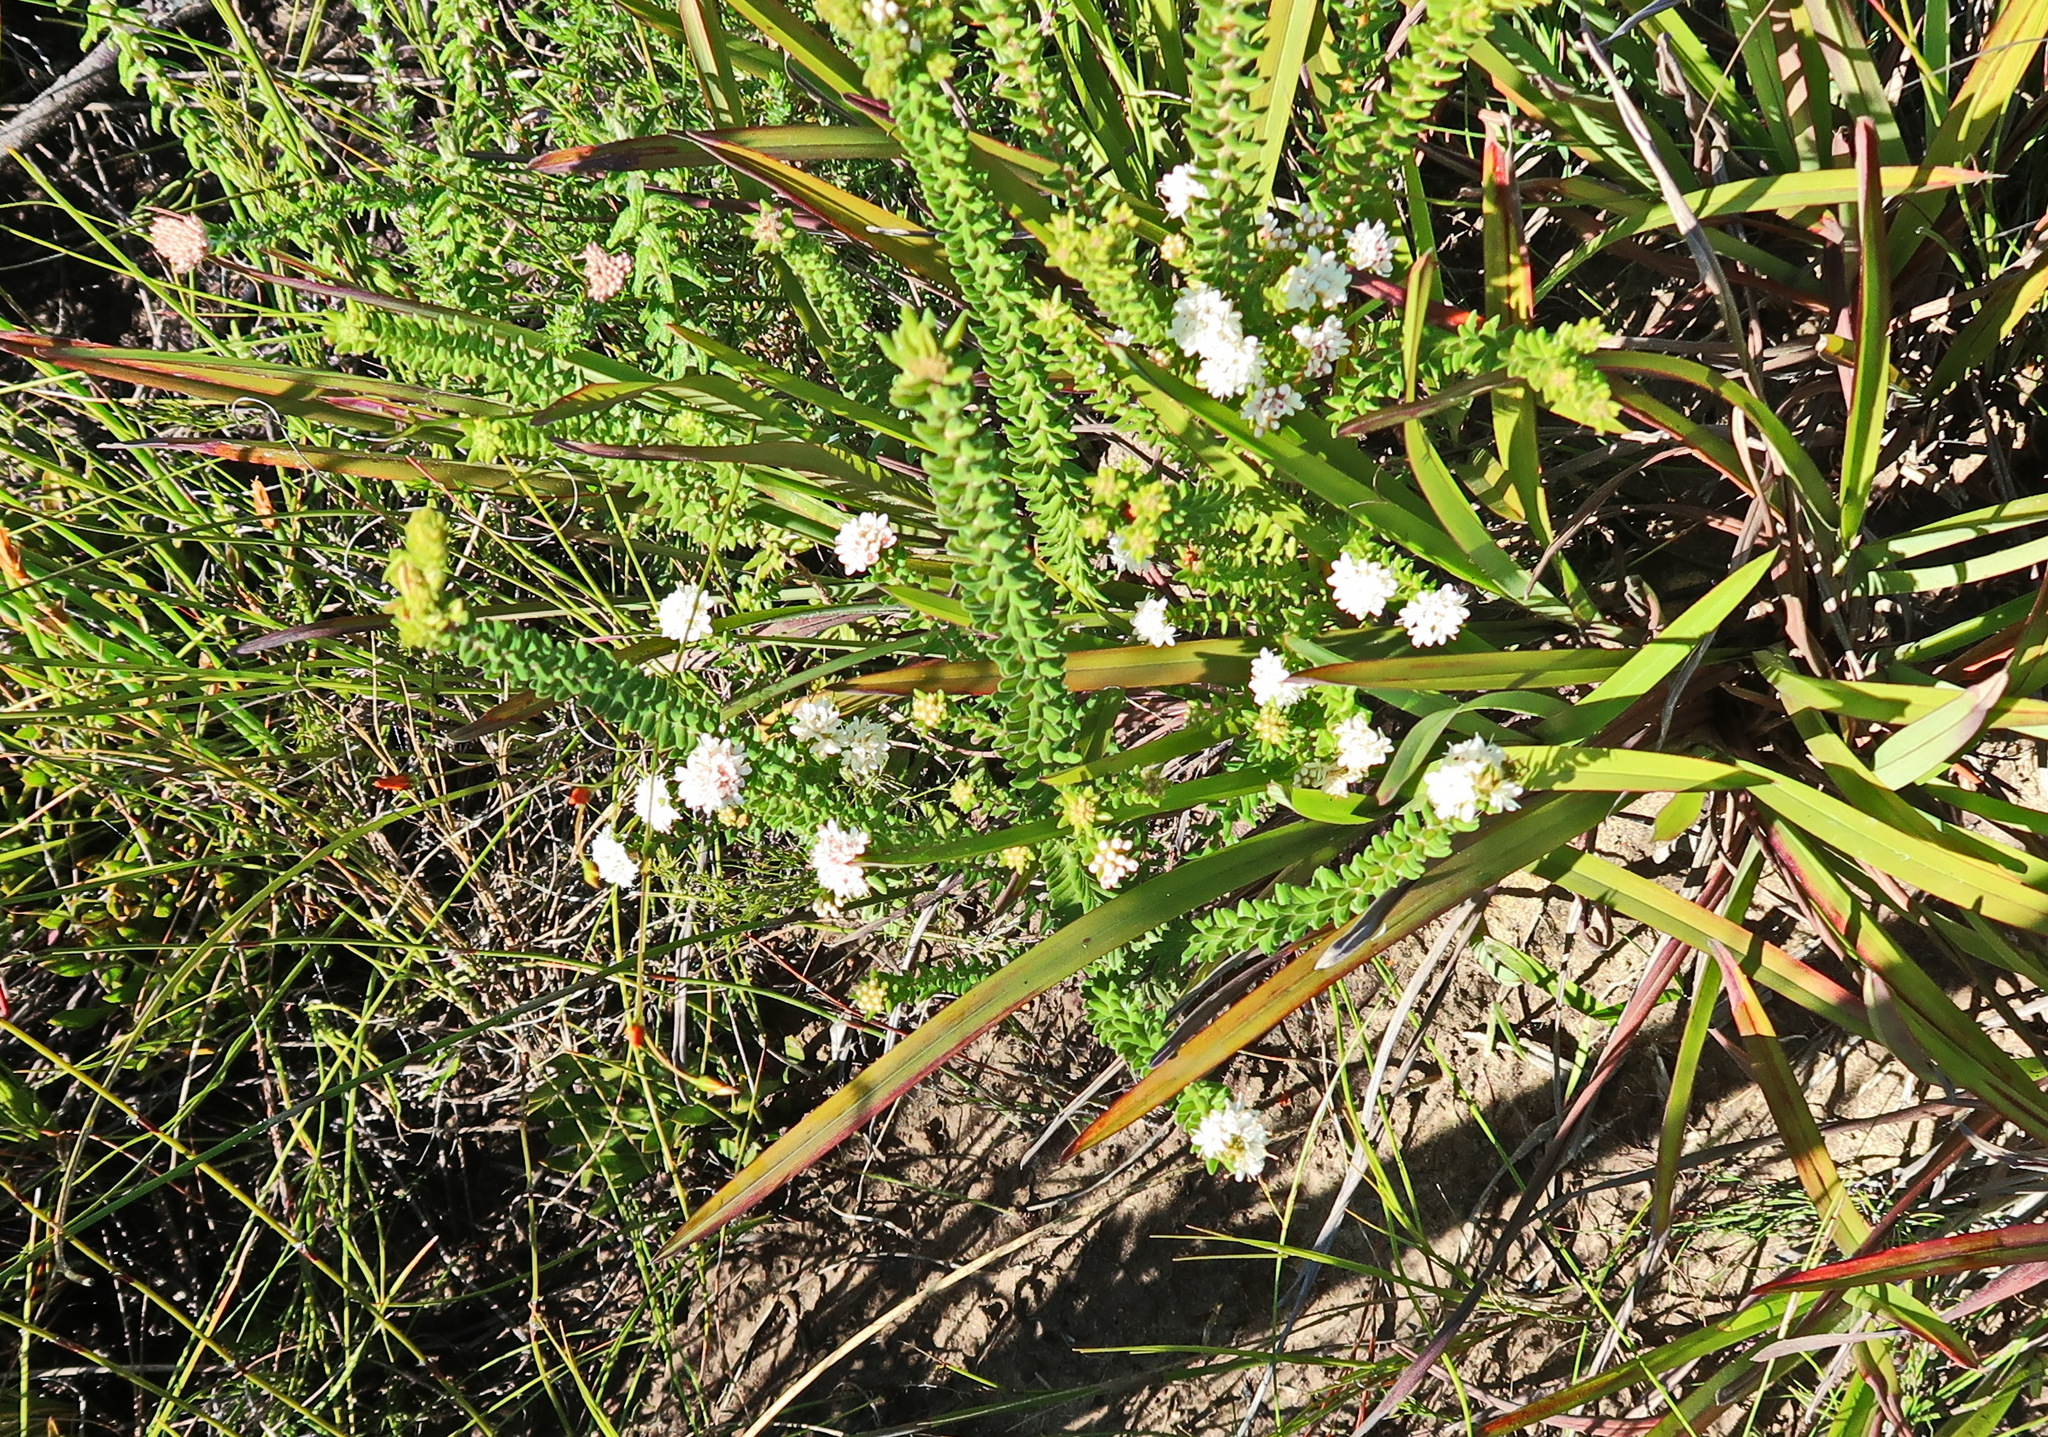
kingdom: Plantae
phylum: Tracheophyta
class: Magnoliopsida
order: Rosales
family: Rhamnaceae
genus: Phylica
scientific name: Phylica debilis
